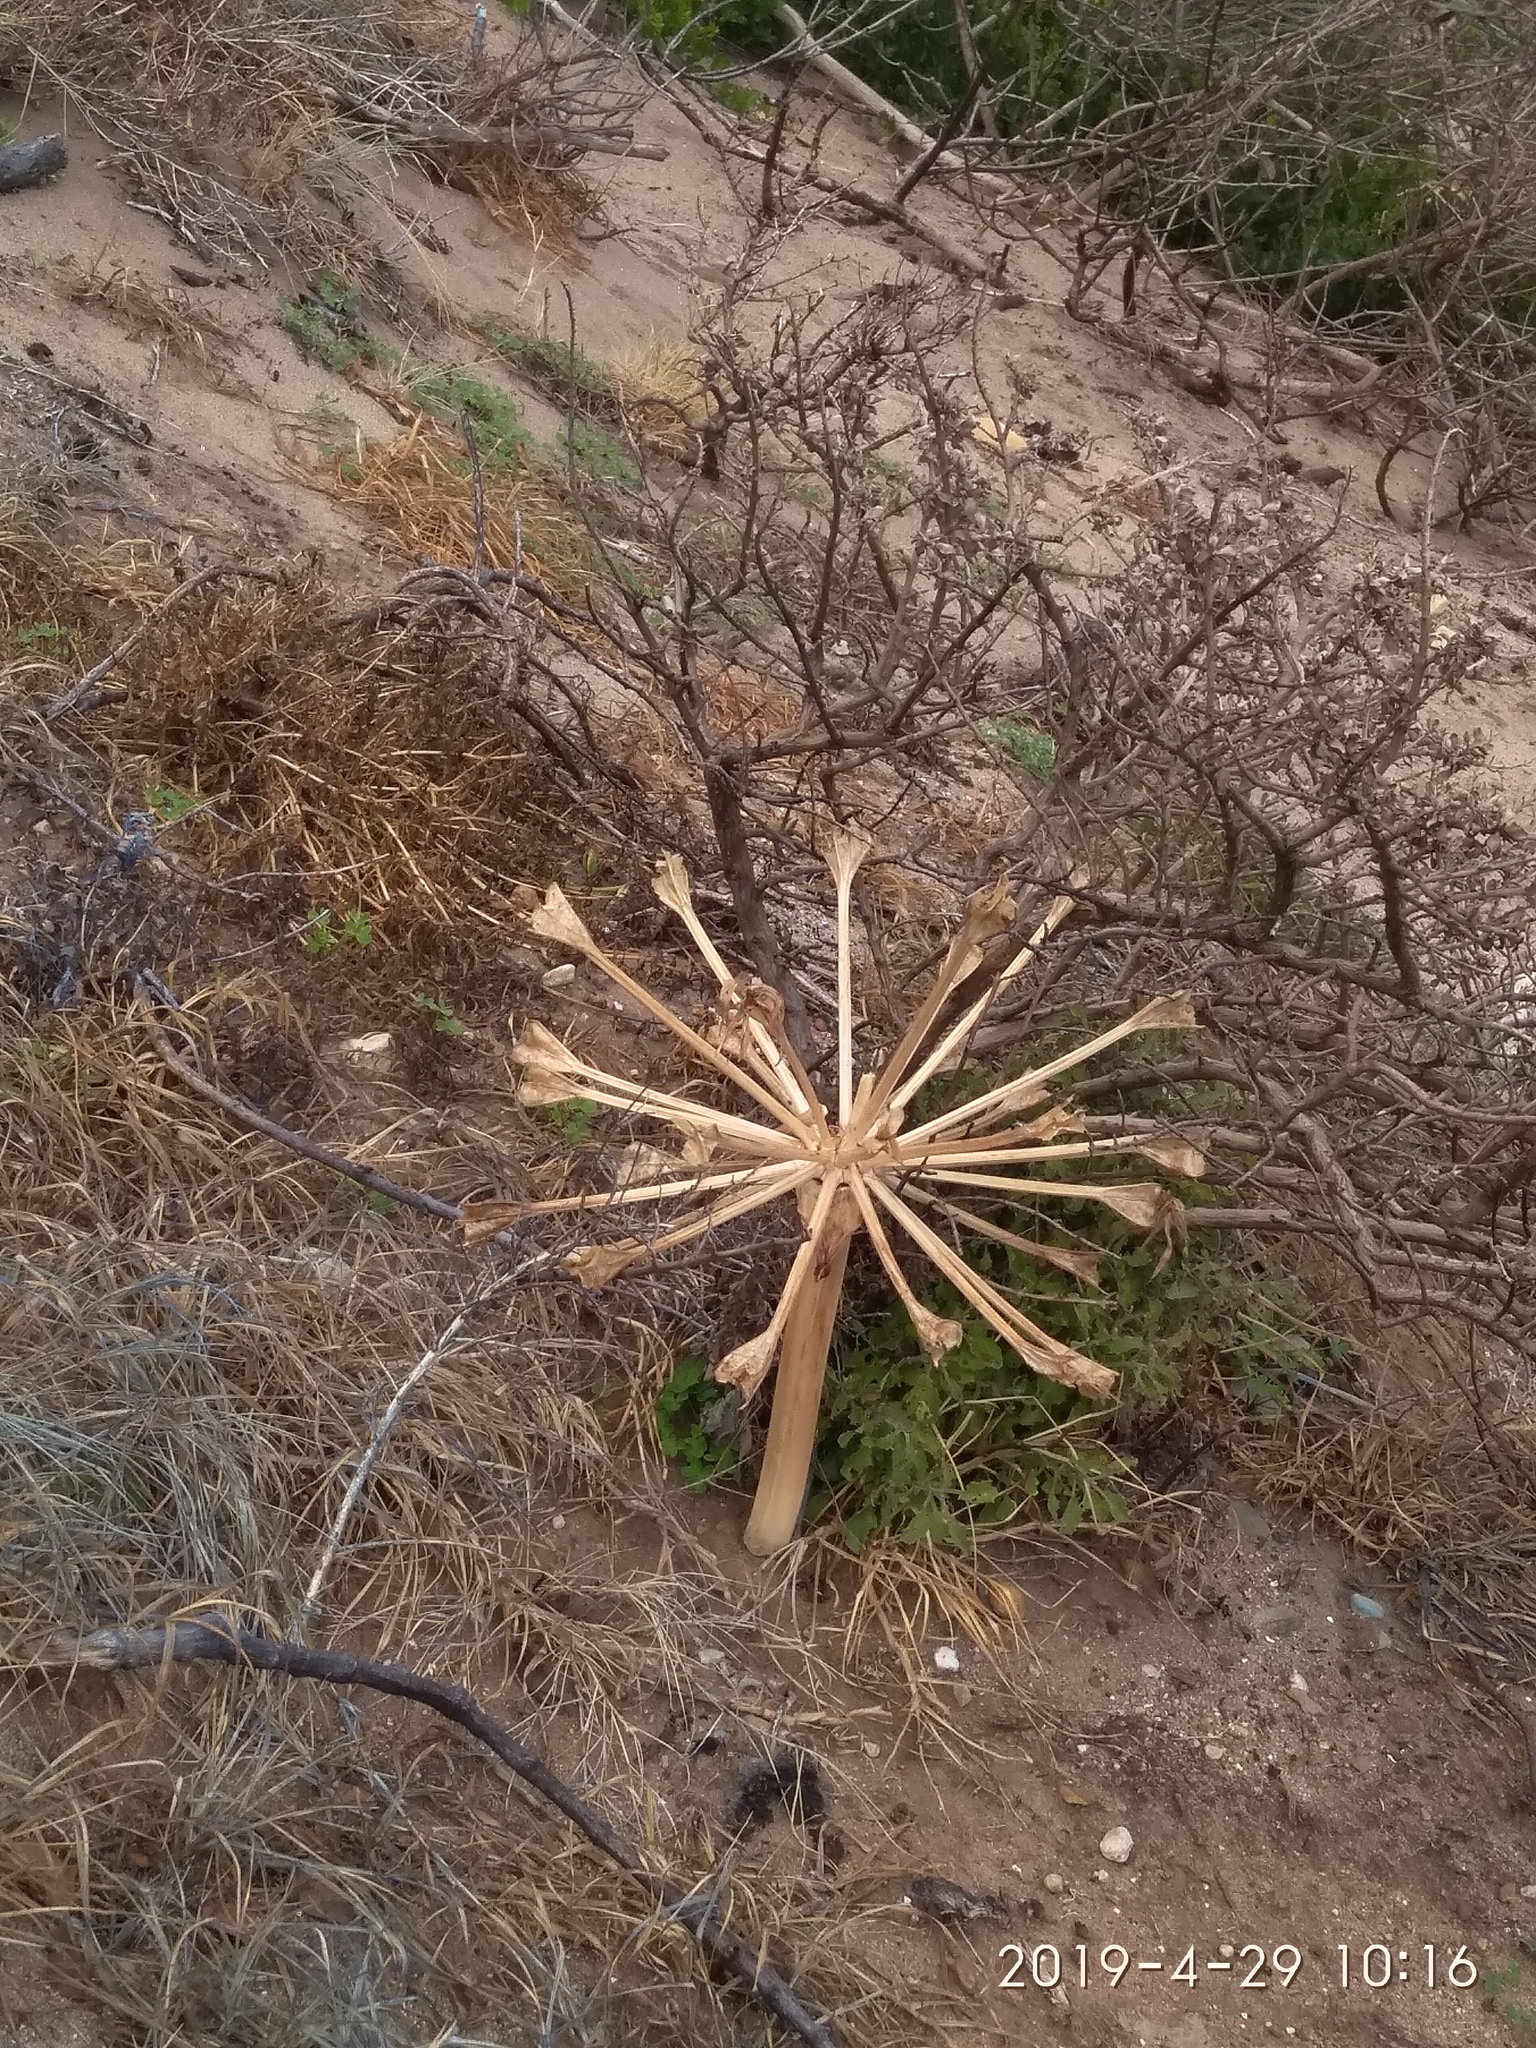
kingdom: Plantae
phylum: Tracheophyta
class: Liliopsida
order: Asparagales
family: Amaryllidaceae
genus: Brunsvigia
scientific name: Brunsvigia orientalis
